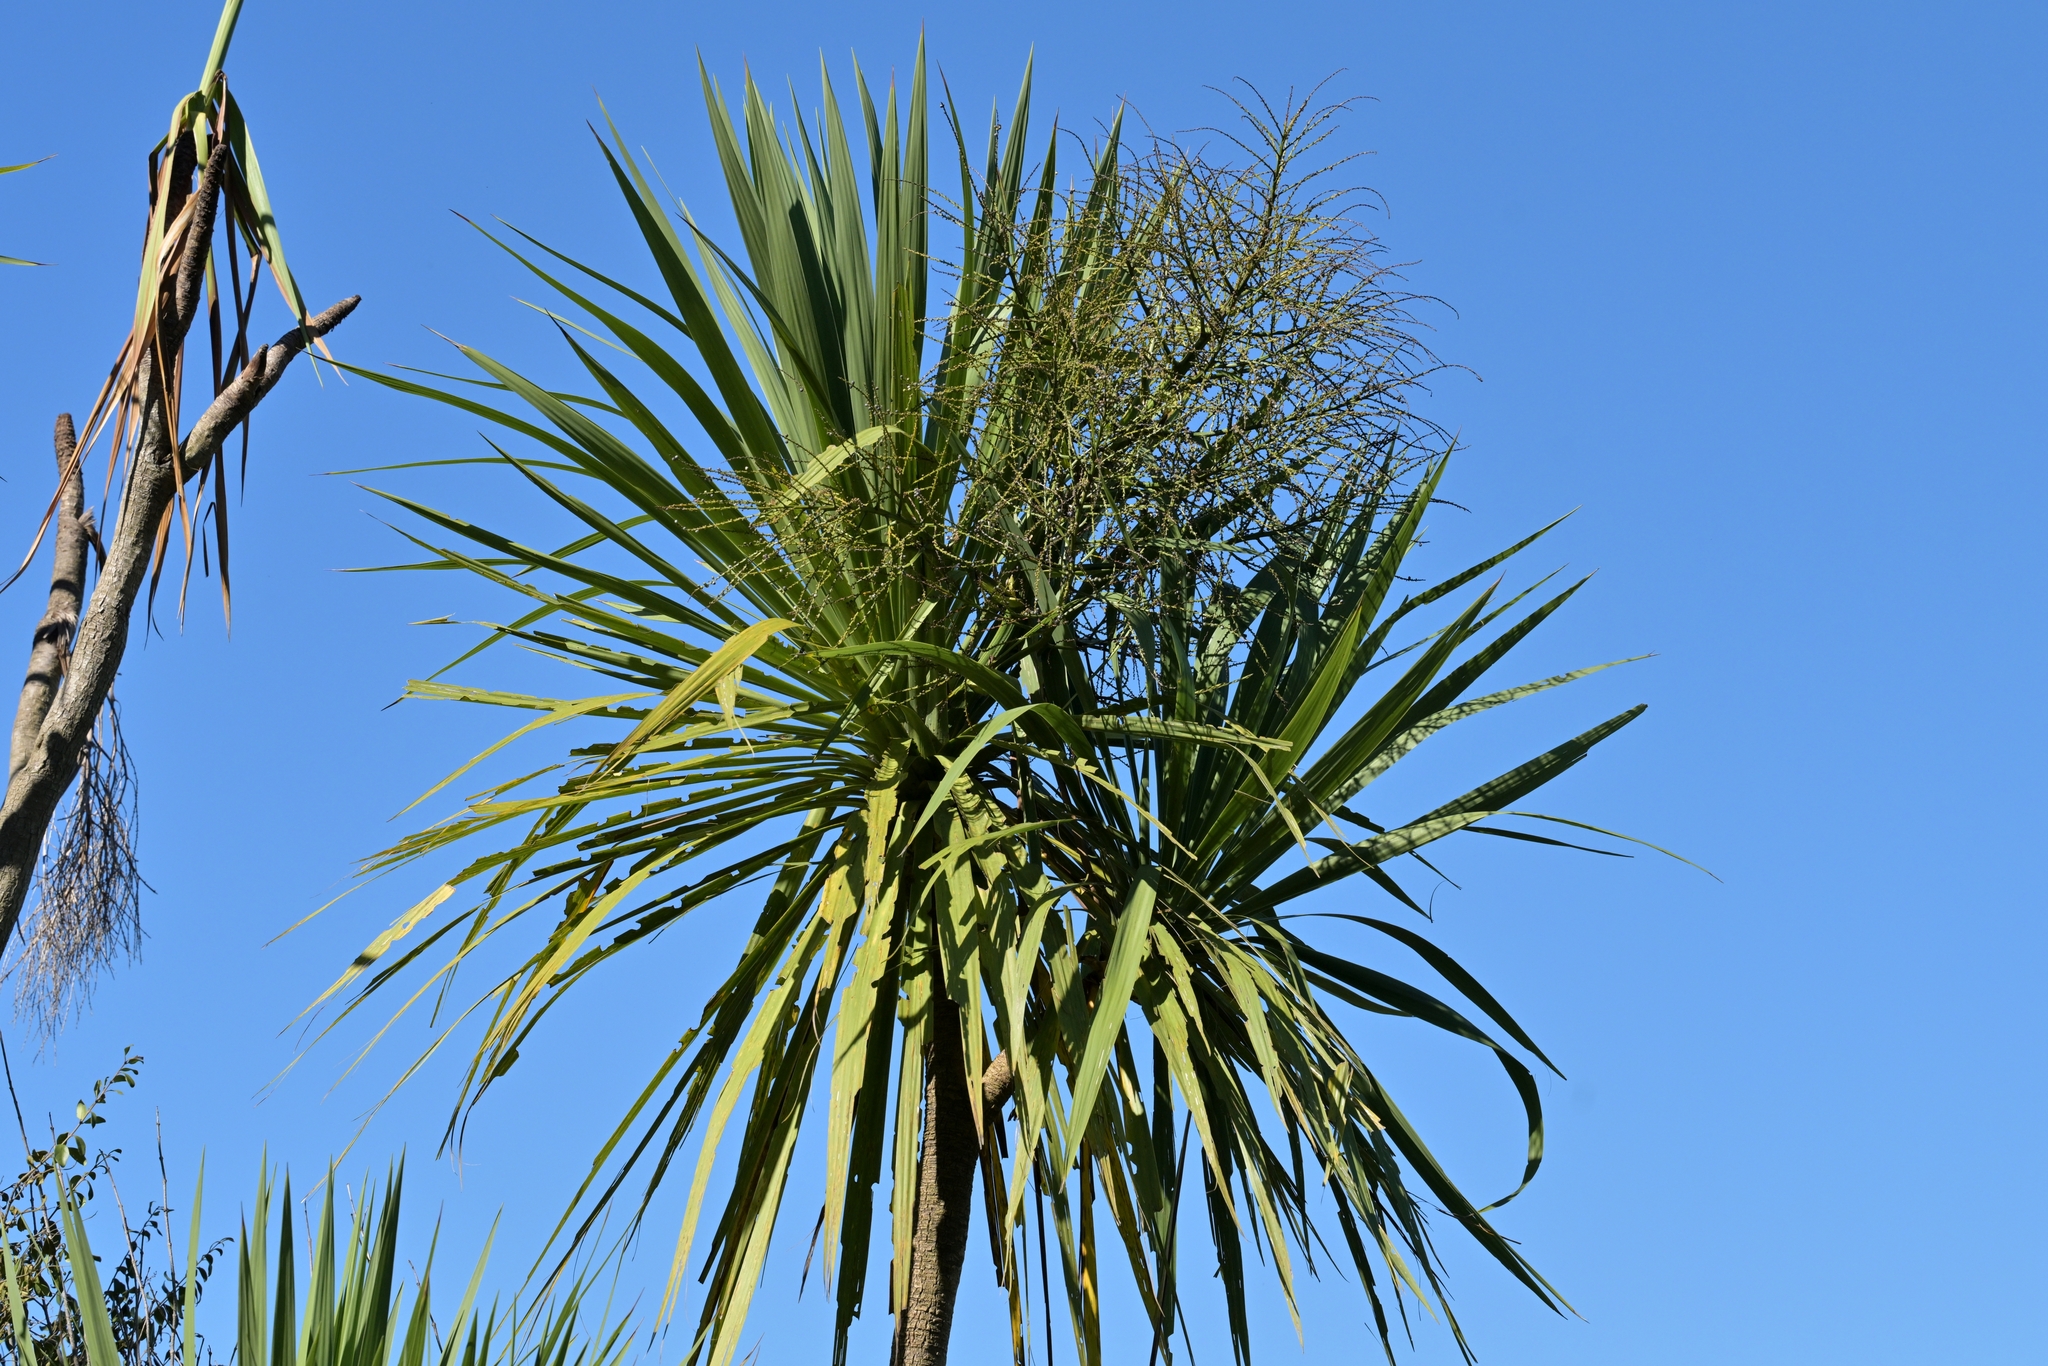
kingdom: Plantae
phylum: Tracheophyta
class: Liliopsida
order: Asparagales
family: Asparagaceae
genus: Cordyline
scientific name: Cordyline australis
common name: Cabbage-palm
